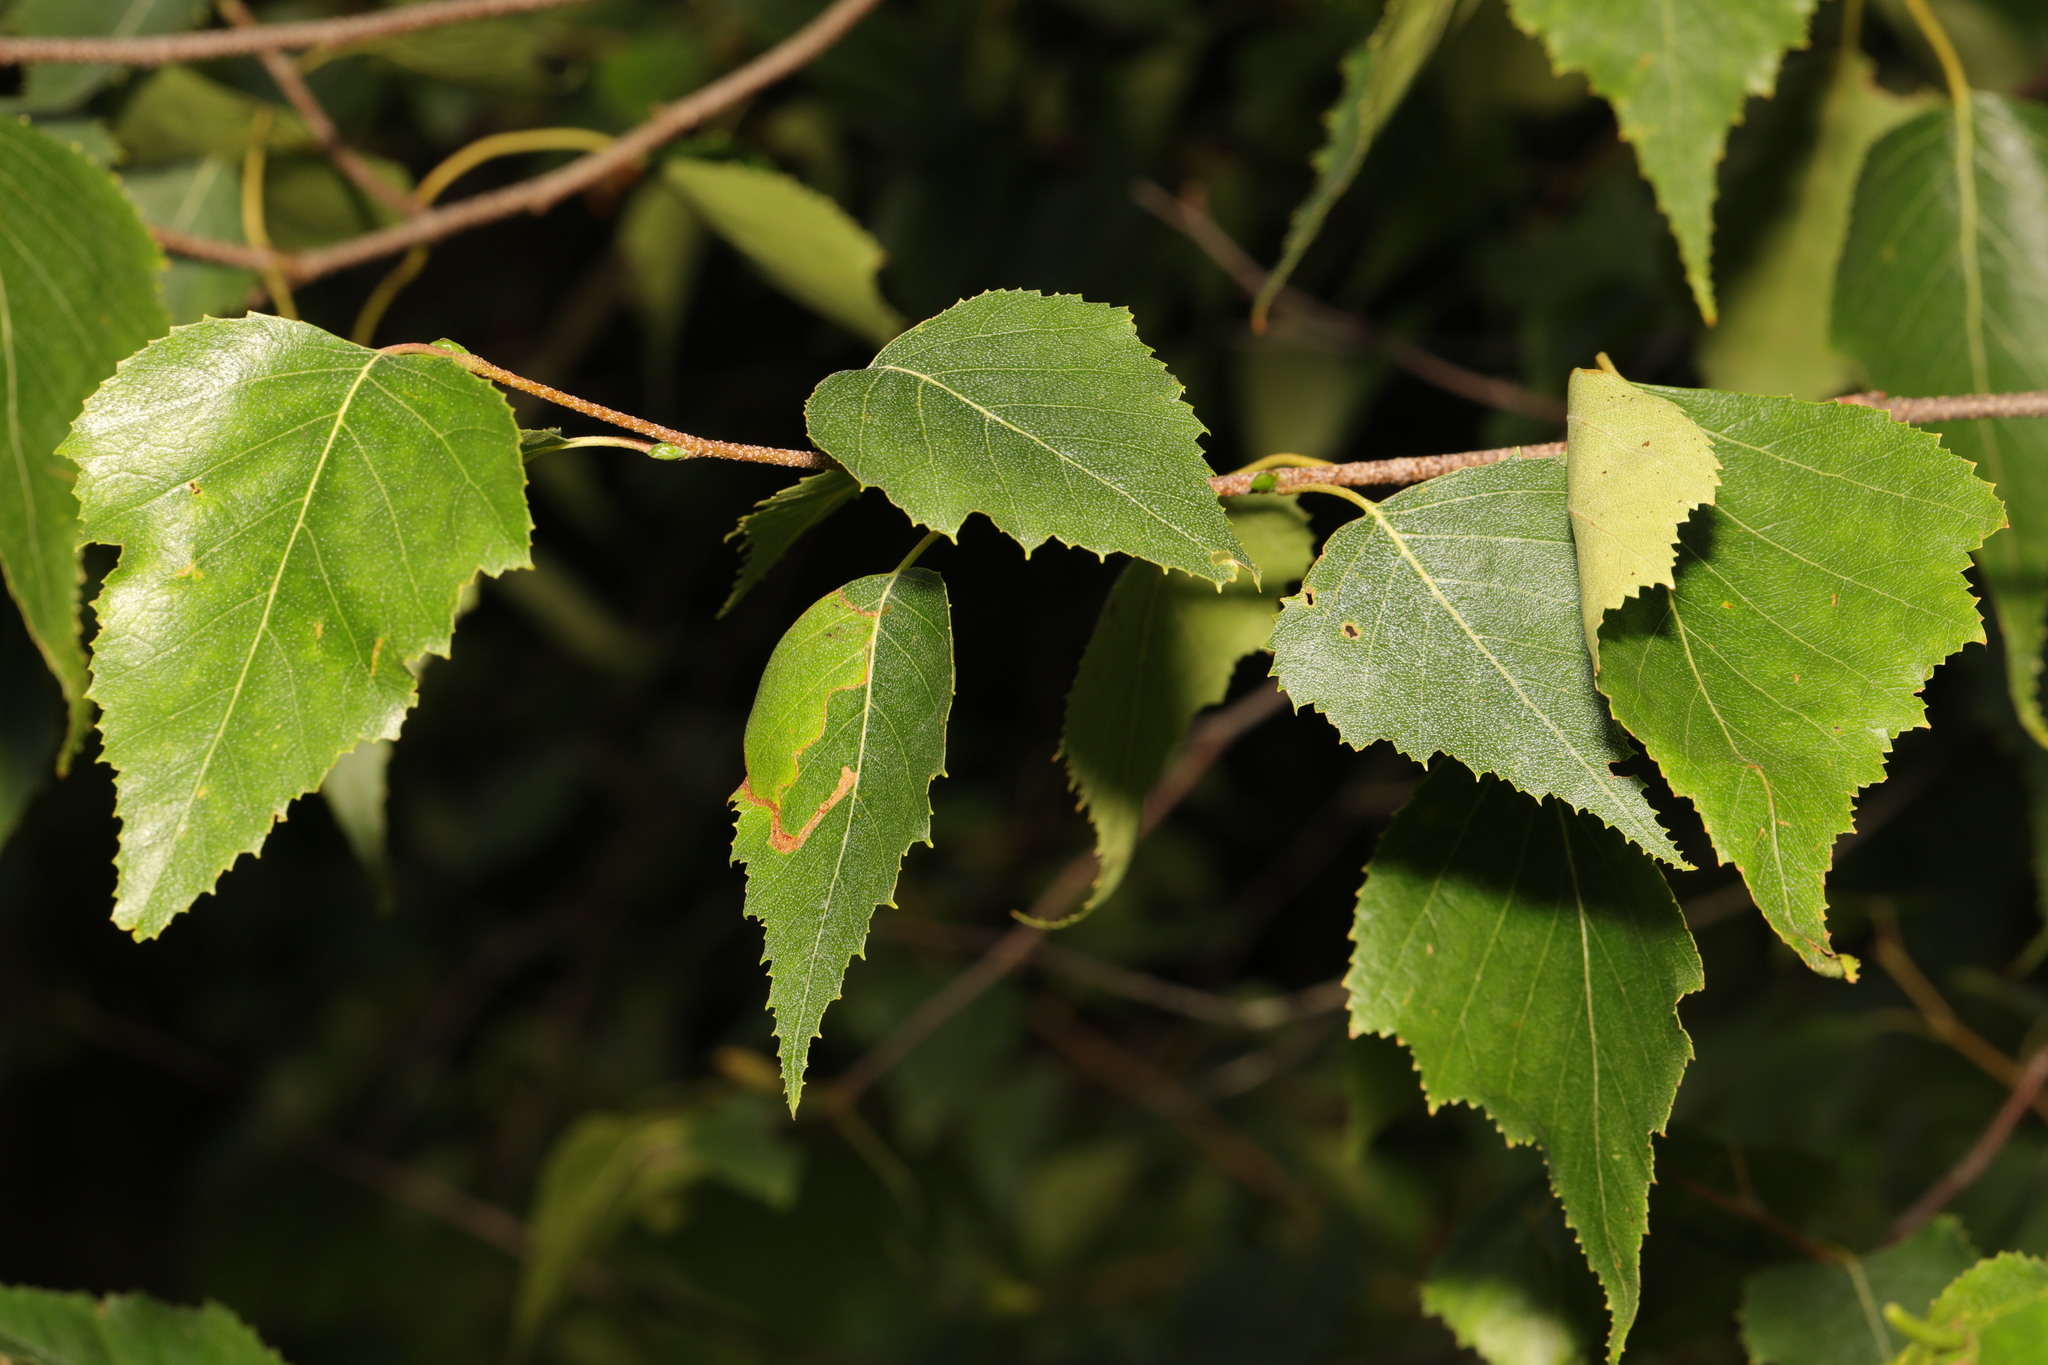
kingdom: Plantae
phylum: Tracheophyta
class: Magnoliopsida
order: Fagales
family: Betulaceae
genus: Betula
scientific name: Betula pendula
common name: Silver birch
